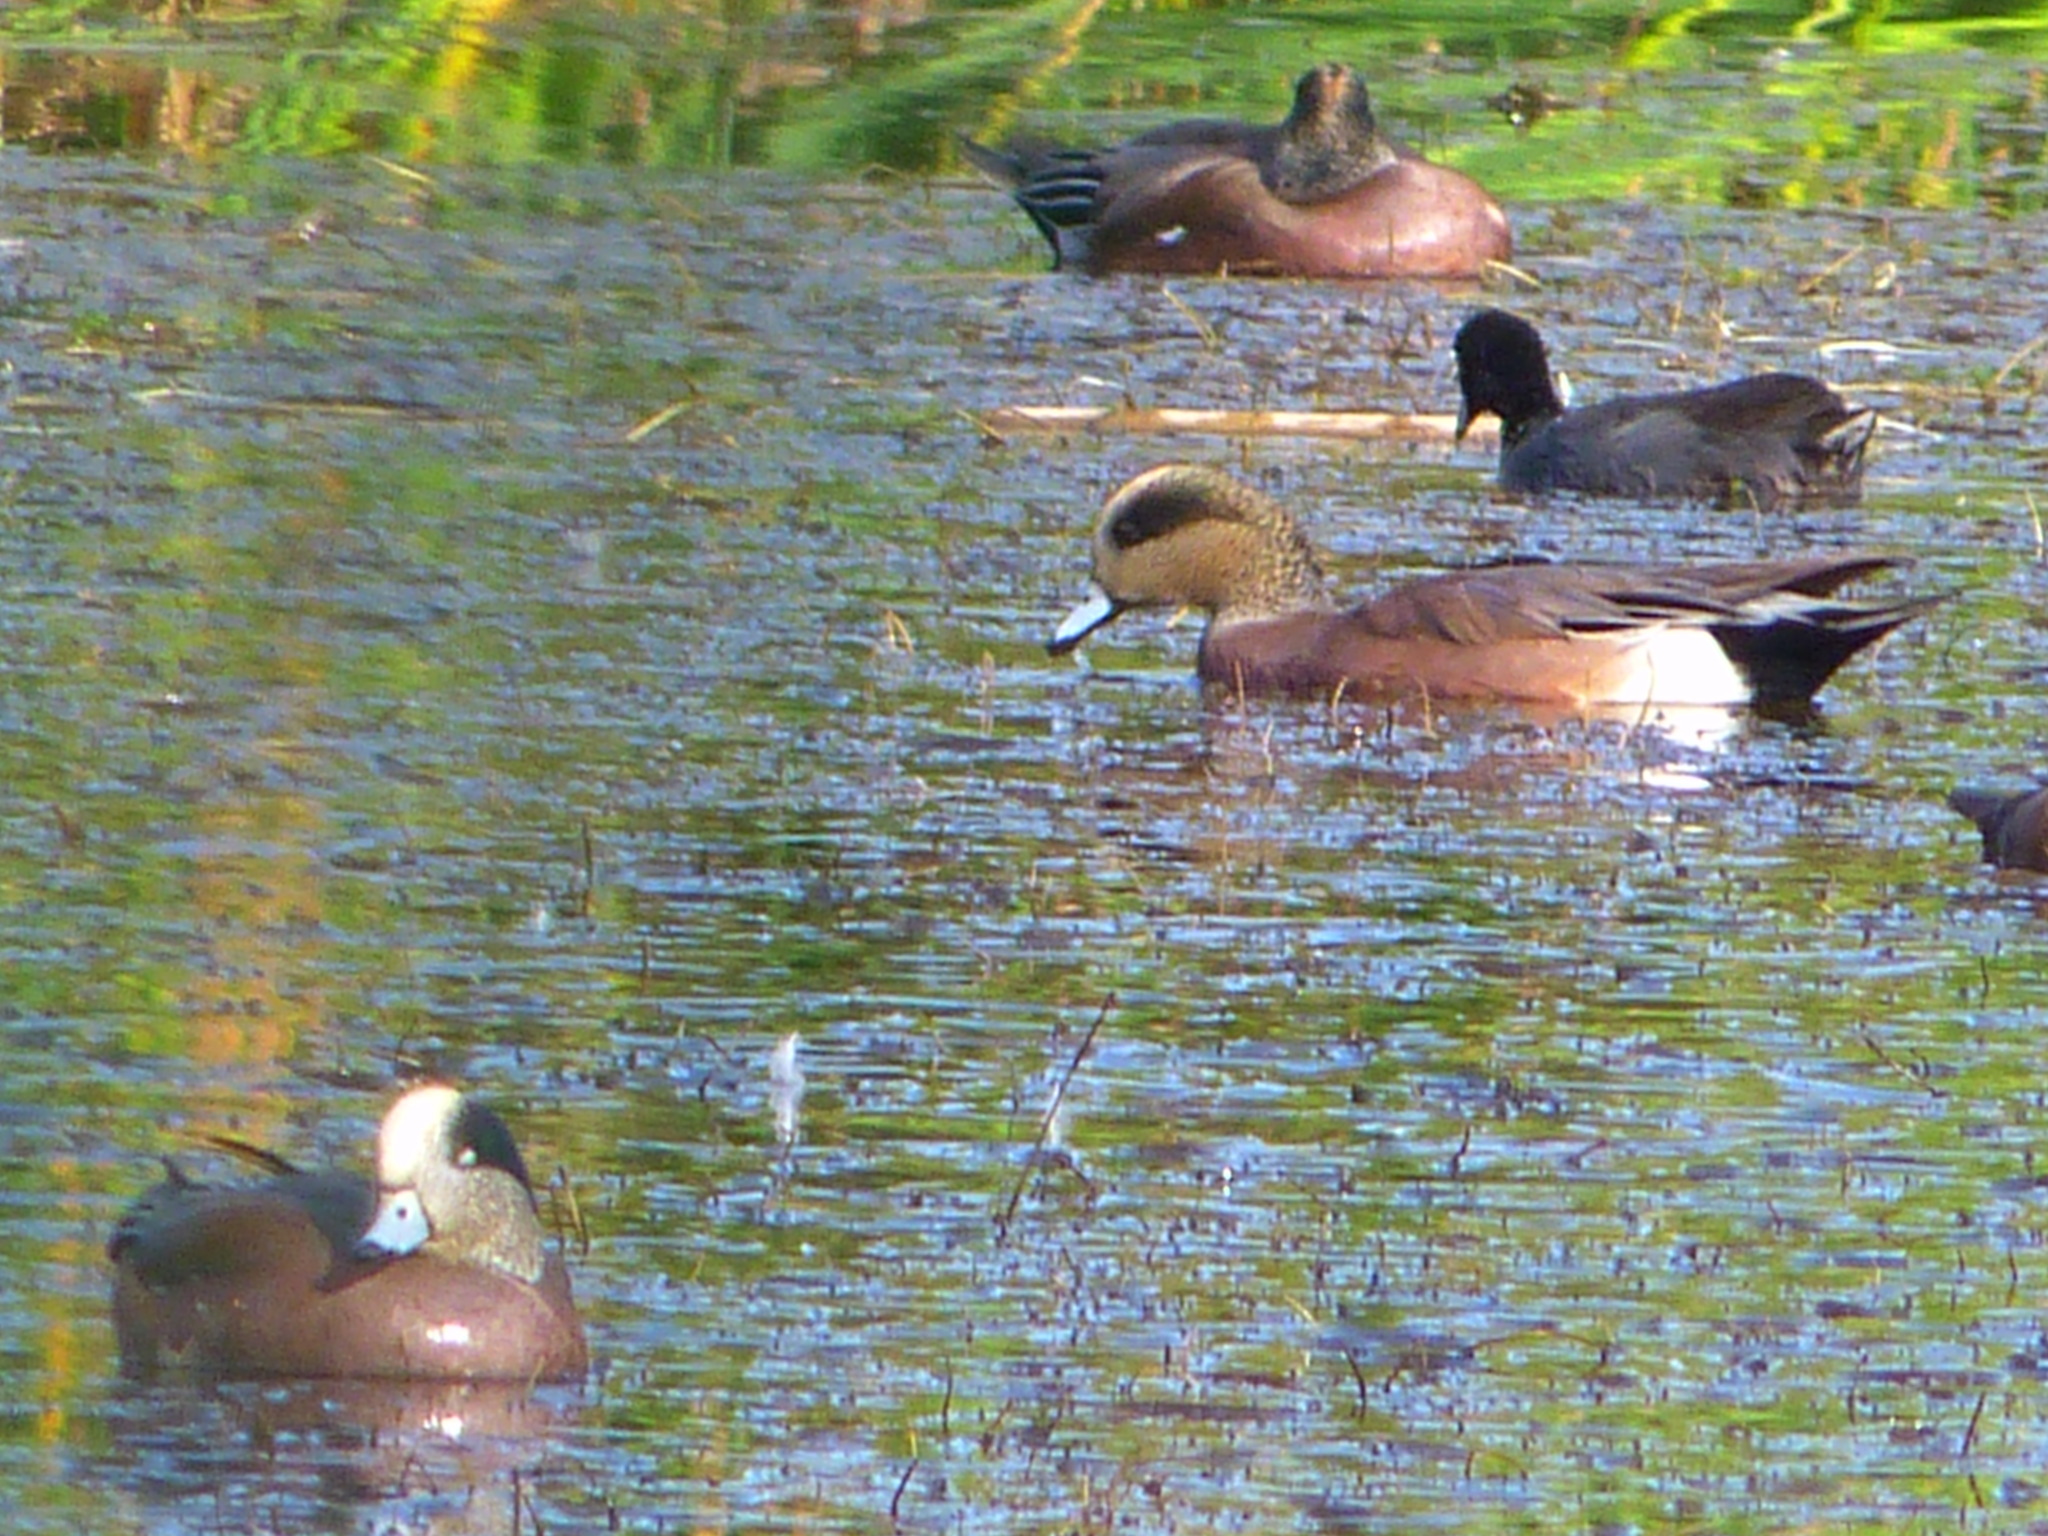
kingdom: Animalia
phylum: Chordata
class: Aves
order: Anseriformes
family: Anatidae
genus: Mareca
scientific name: Mareca americana
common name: American wigeon
